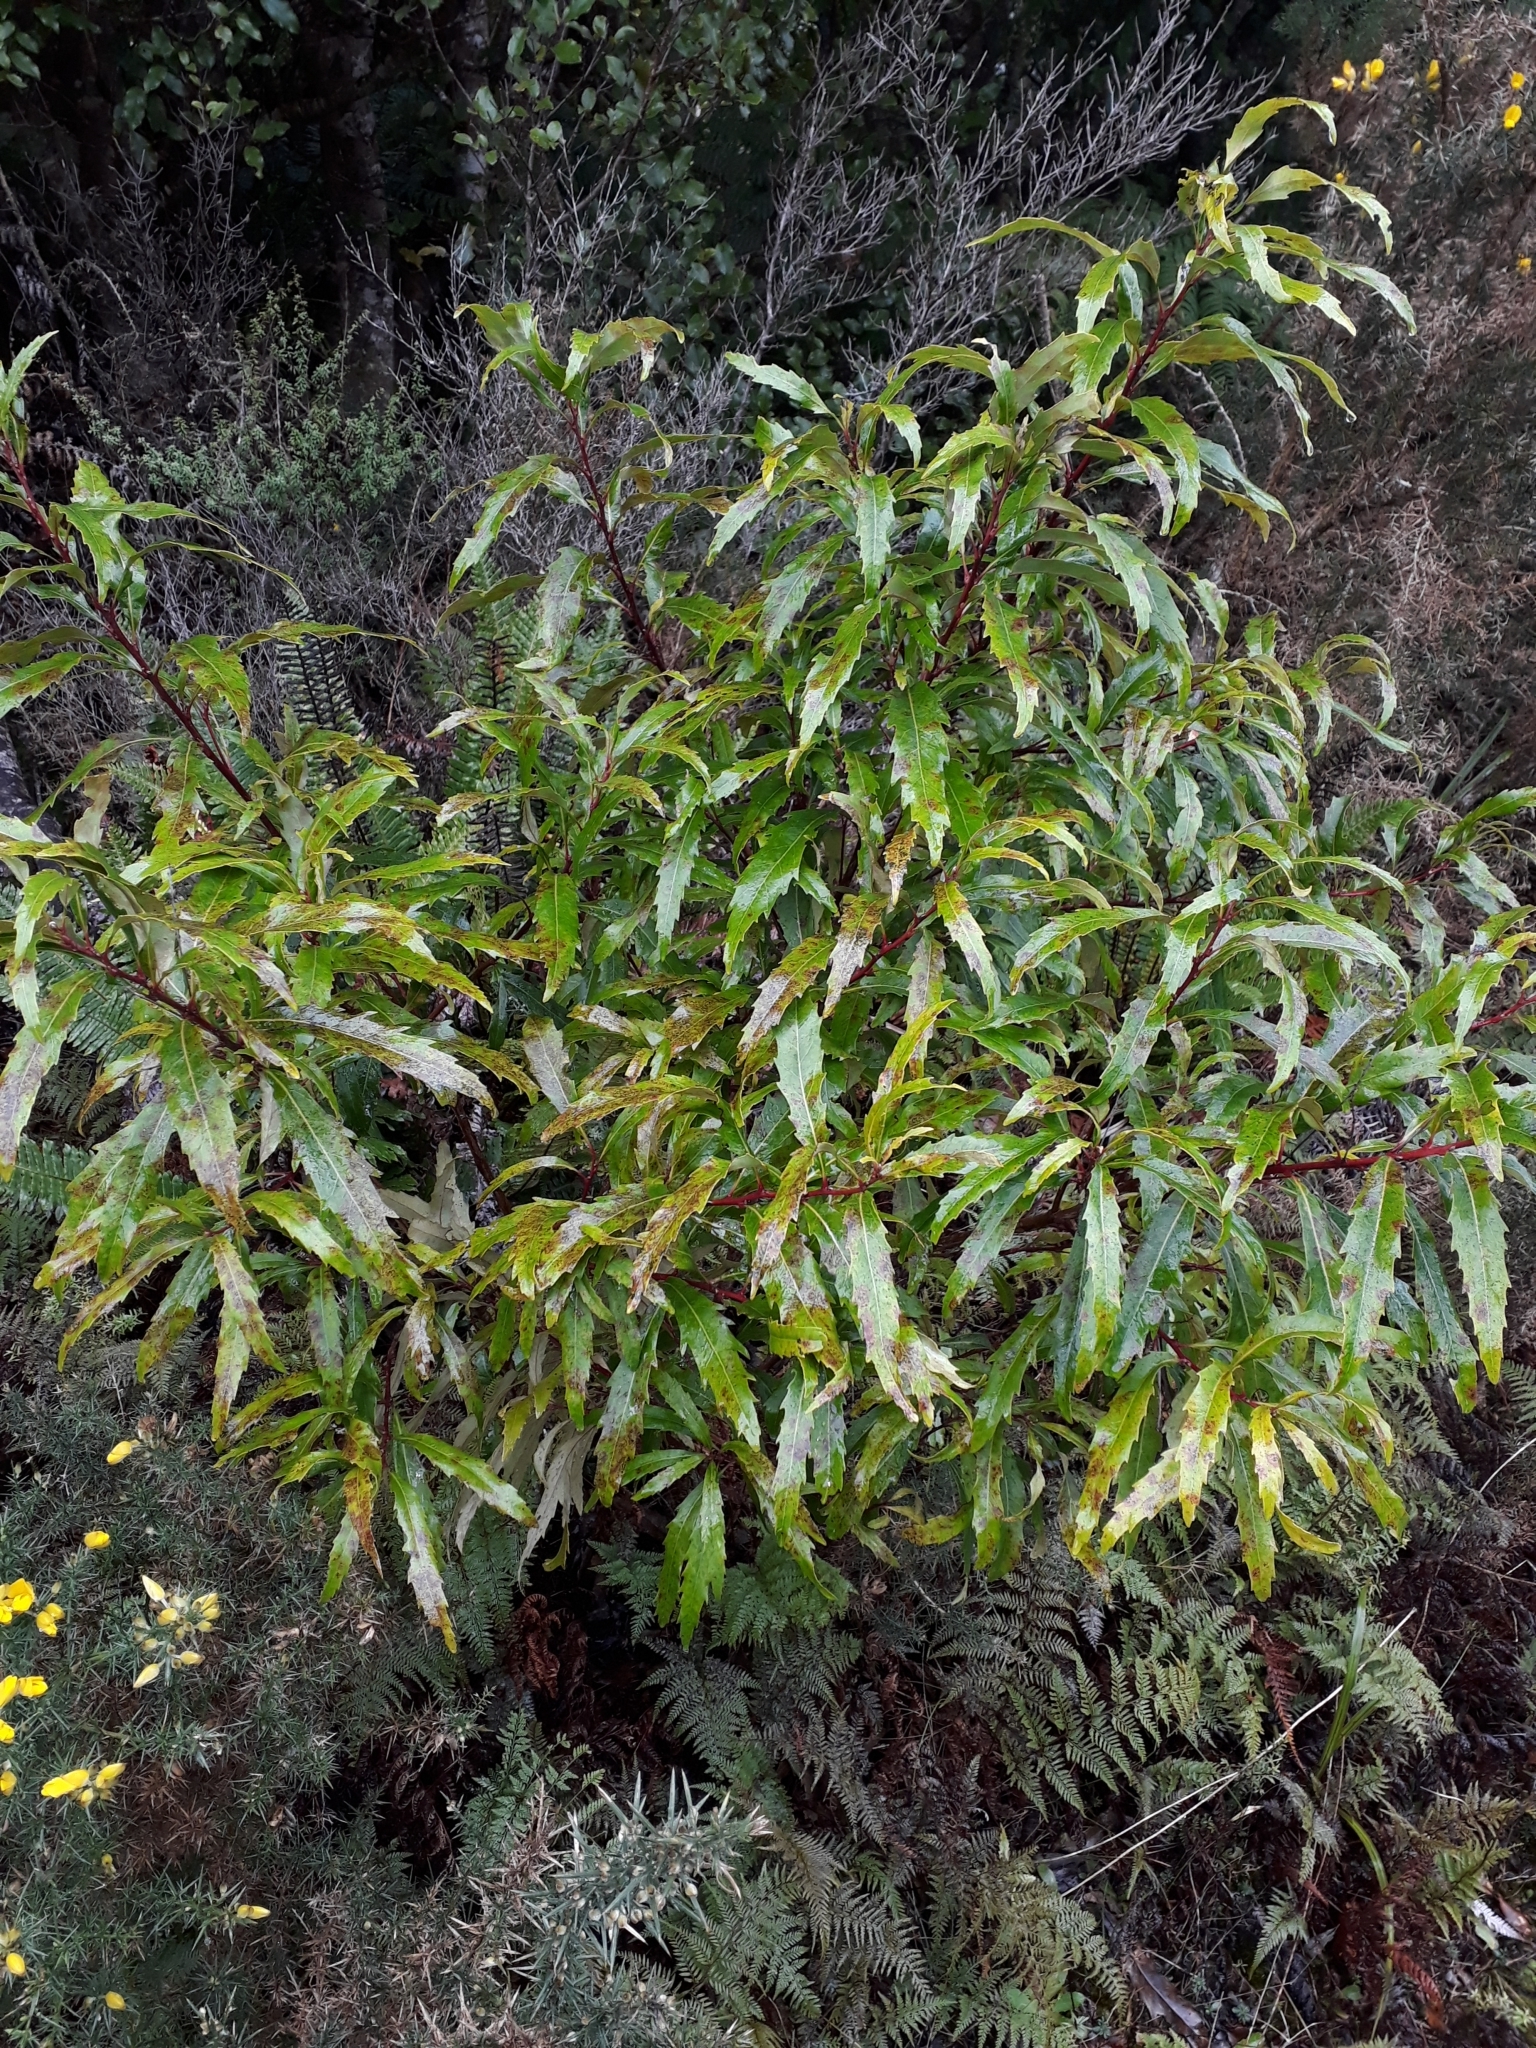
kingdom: Plantae
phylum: Tracheophyta
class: Magnoliopsida
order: Proteales
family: Proteaceae
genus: Lomatia
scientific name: Lomatia fraseri
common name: Forest lomatia
